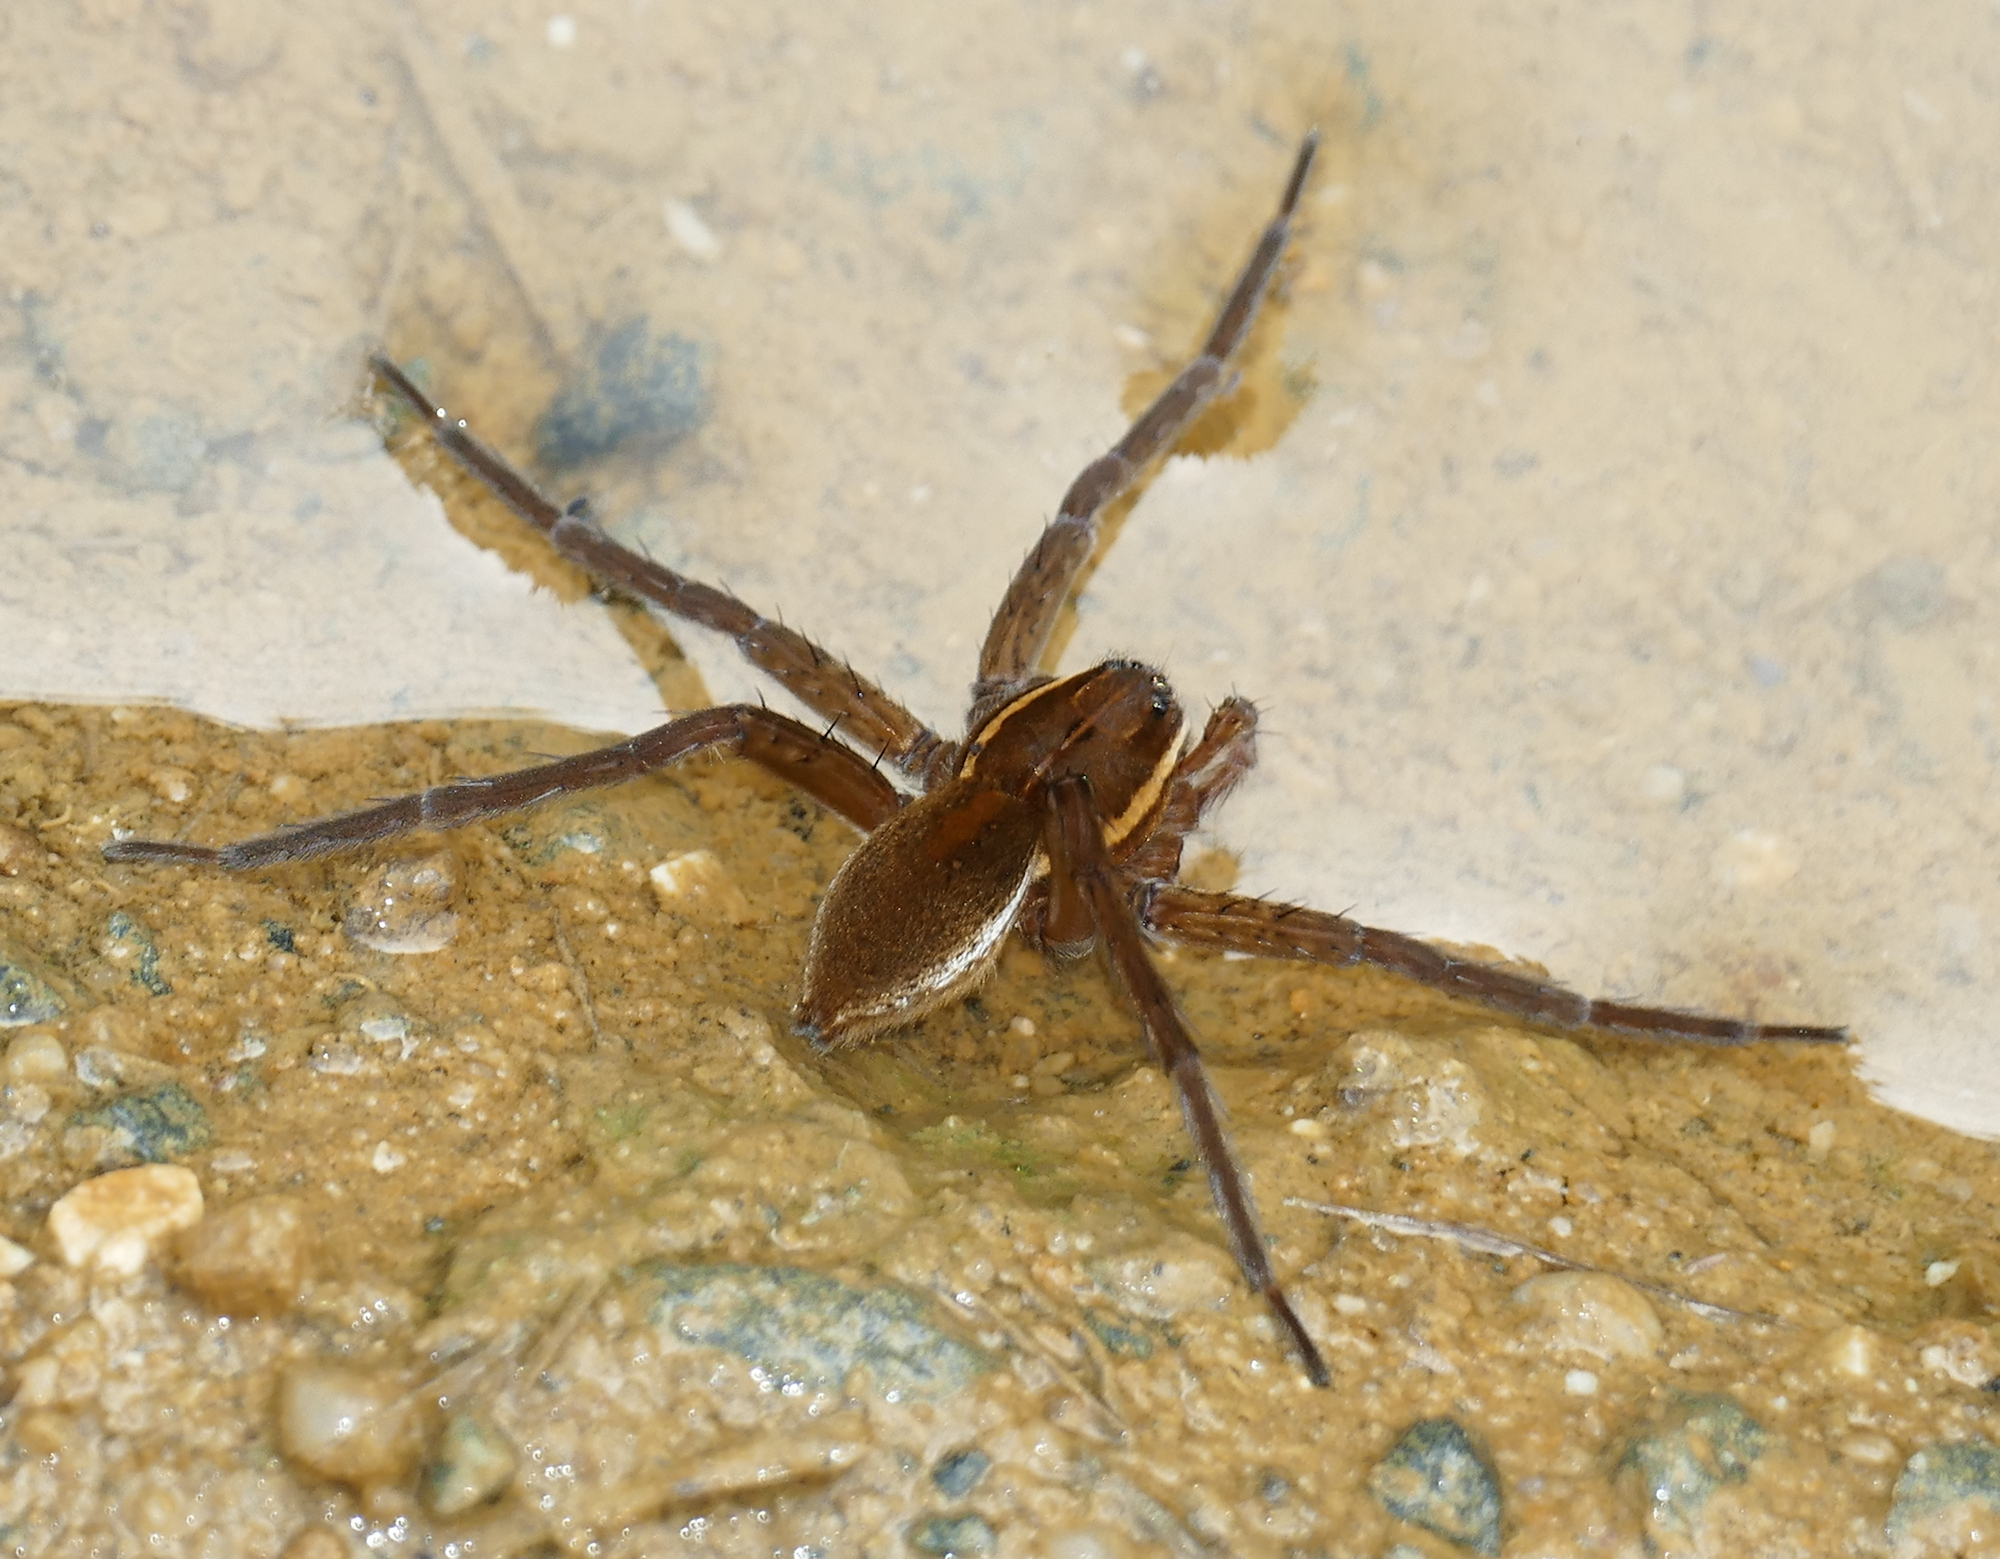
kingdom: Animalia
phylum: Arthropoda
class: Arachnida
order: Araneae
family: Pisauridae
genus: Dolomedes
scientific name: Dolomedes triton
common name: Six-spotted fishing spider
